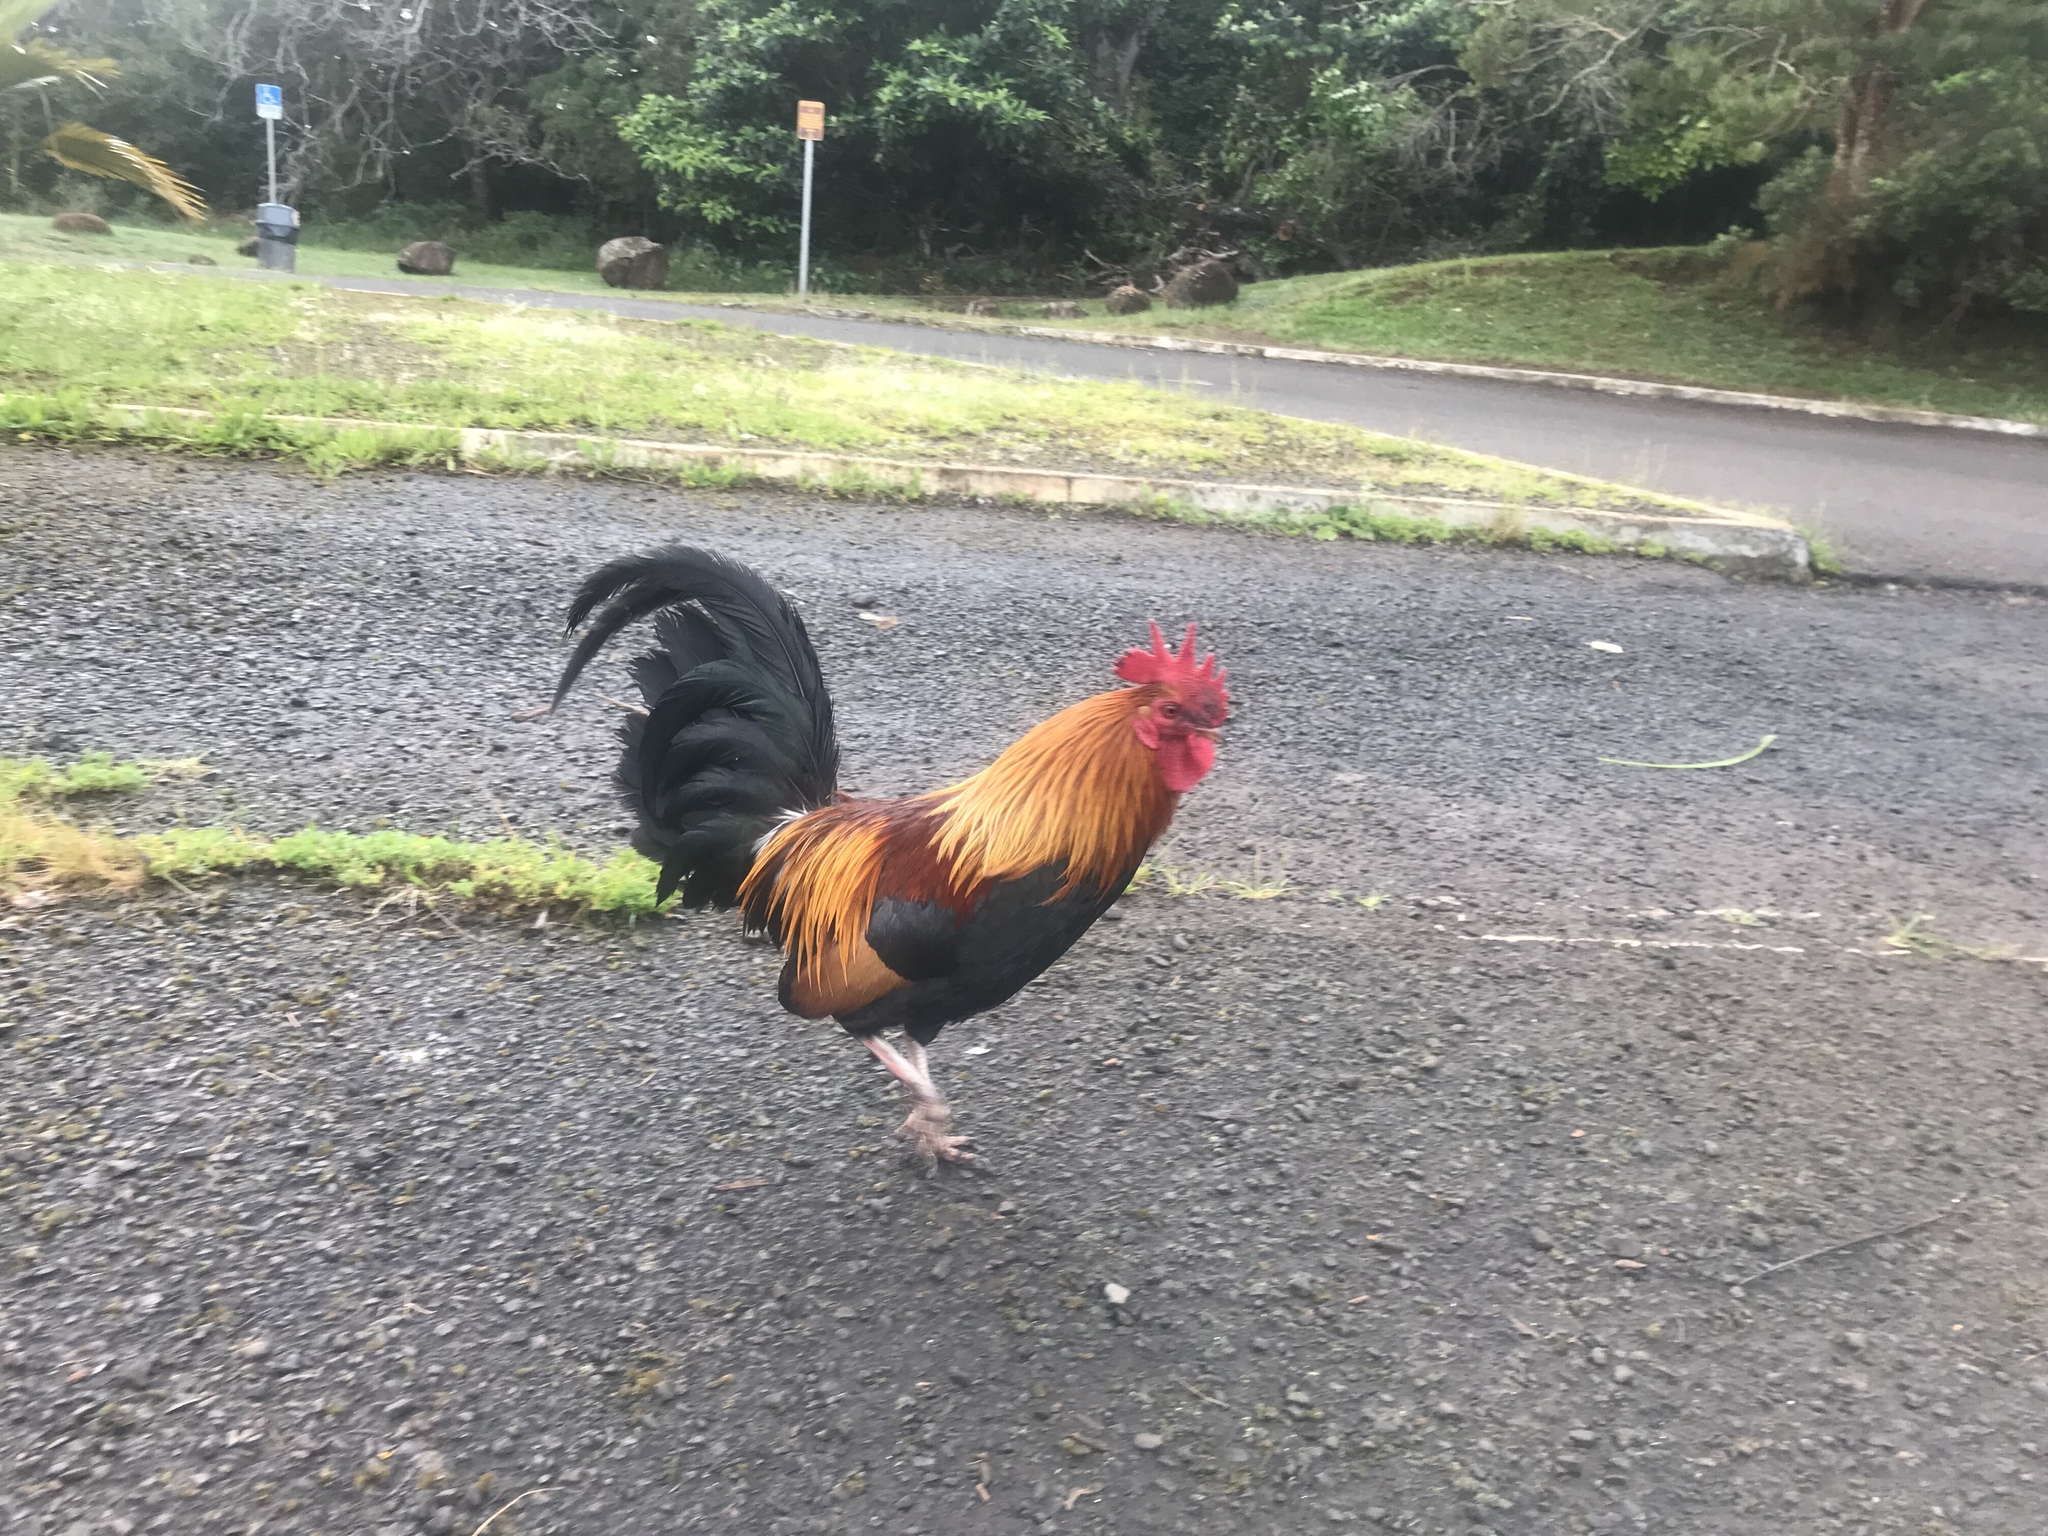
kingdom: Animalia
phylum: Chordata
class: Aves
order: Galliformes
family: Phasianidae
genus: Gallus
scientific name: Gallus gallus
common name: Red junglefowl
